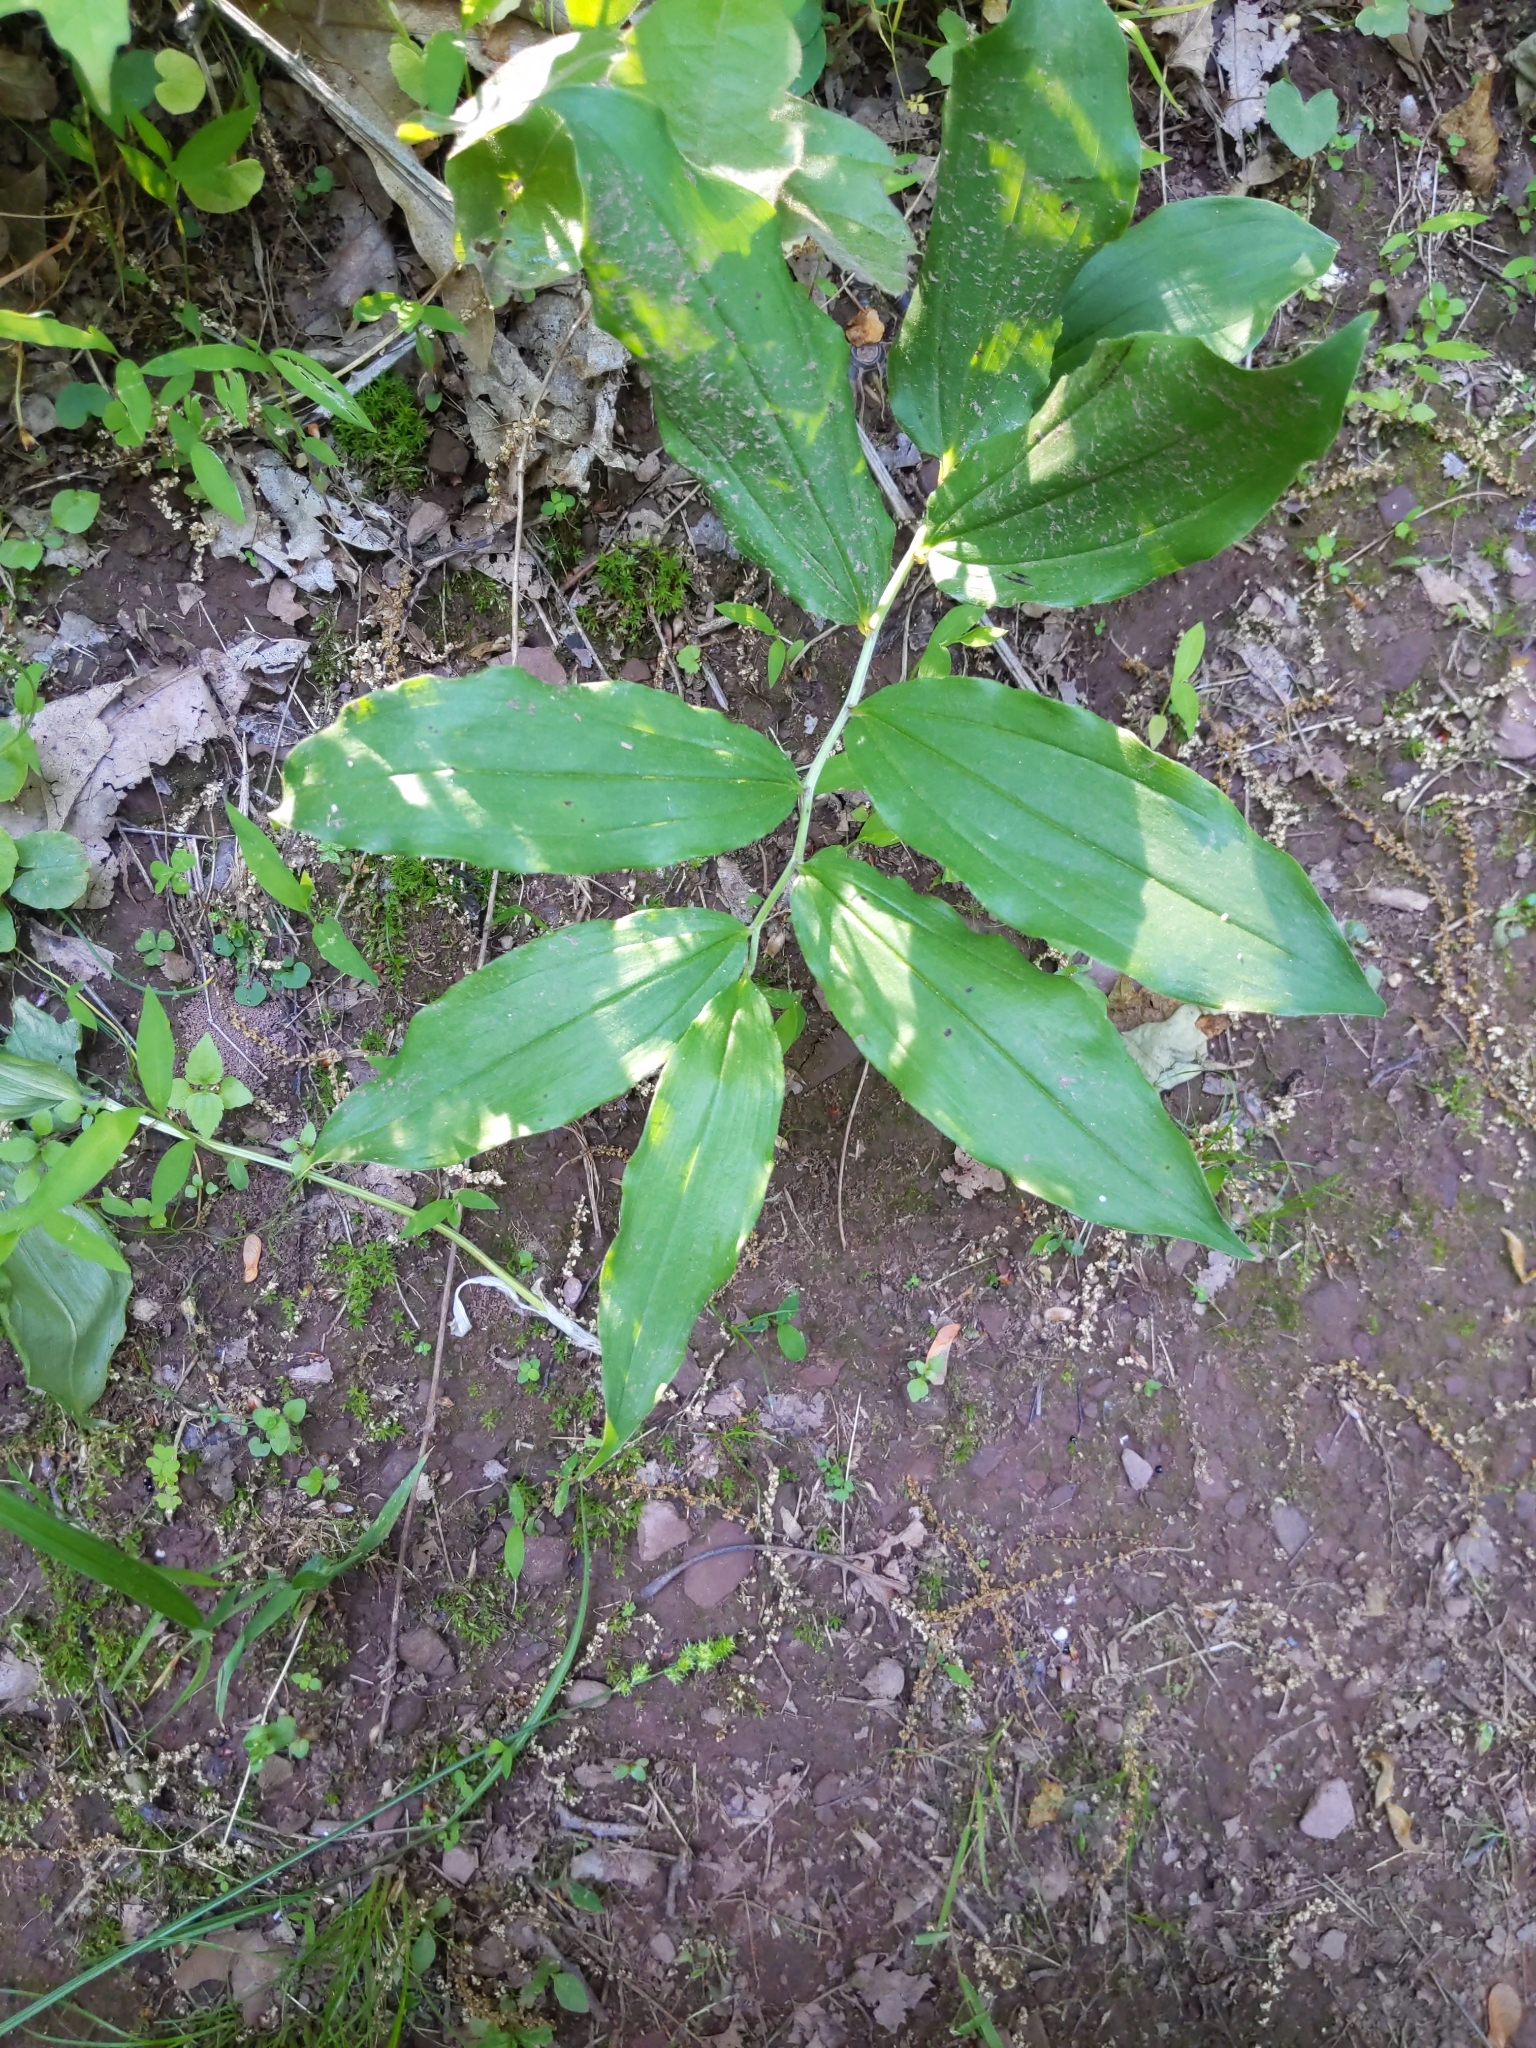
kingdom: Plantae
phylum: Tracheophyta
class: Liliopsida
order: Asparagales
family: Asparagaceae
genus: Maianthemum
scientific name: Maianthemum racemosum
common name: False spikenard
